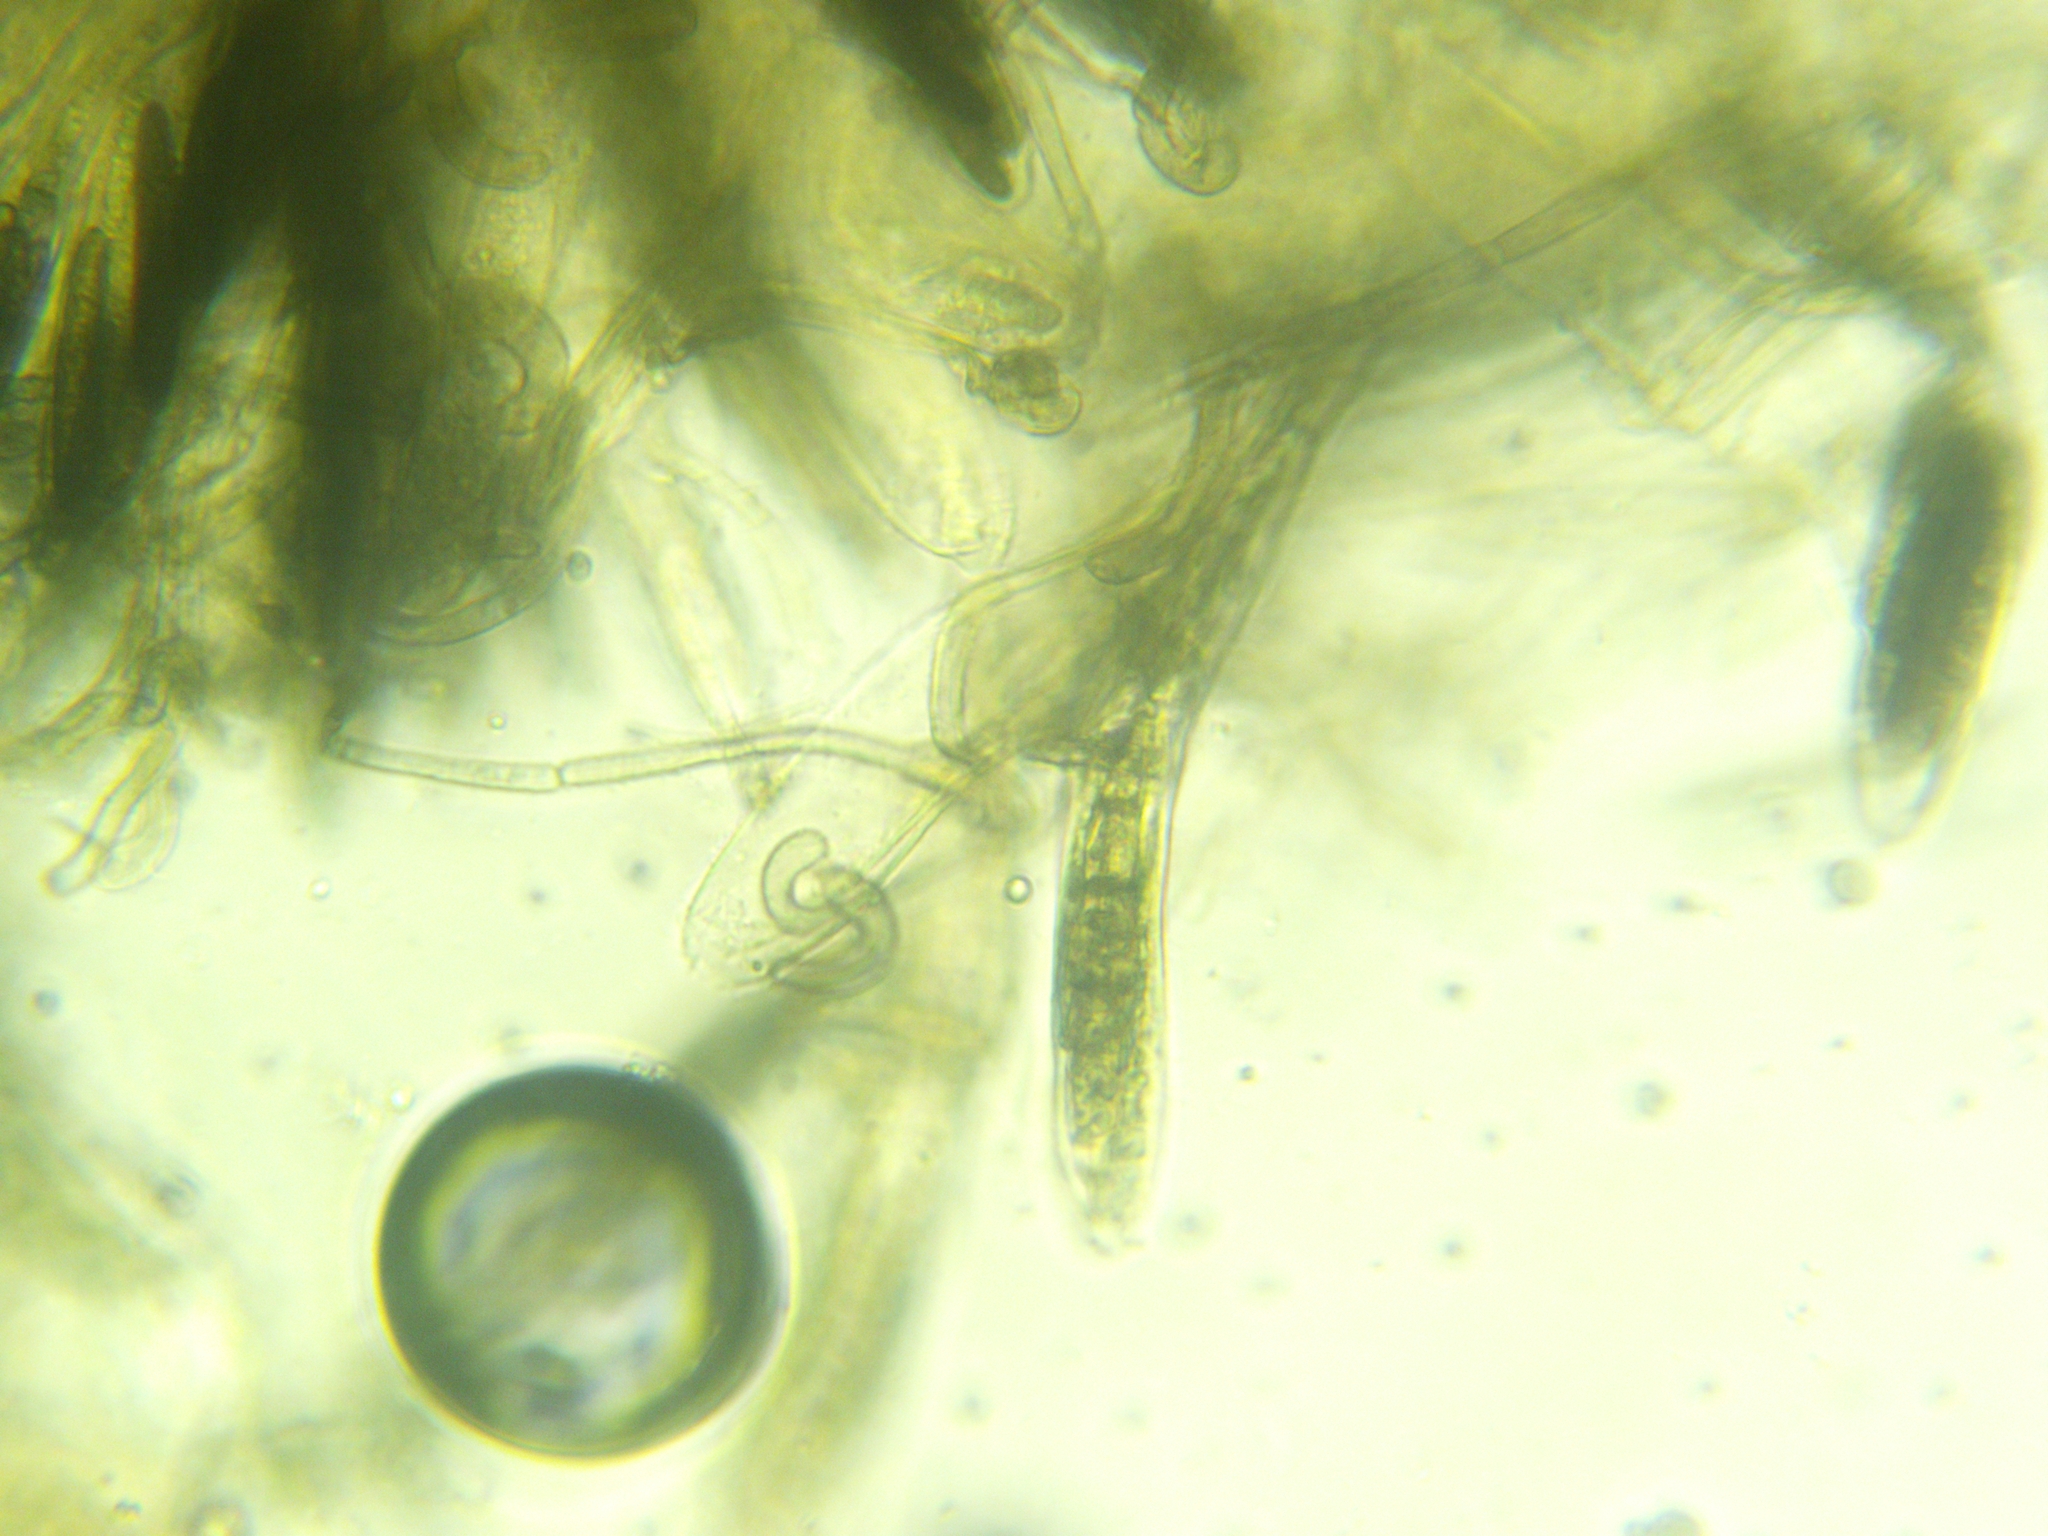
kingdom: Fungi
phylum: Ascomycota
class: Geoglossomycetes
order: Geoglossales
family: Geoglossaceae
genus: Geoglossum
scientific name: Geoglossum umbratile
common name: Plain earthtongue
